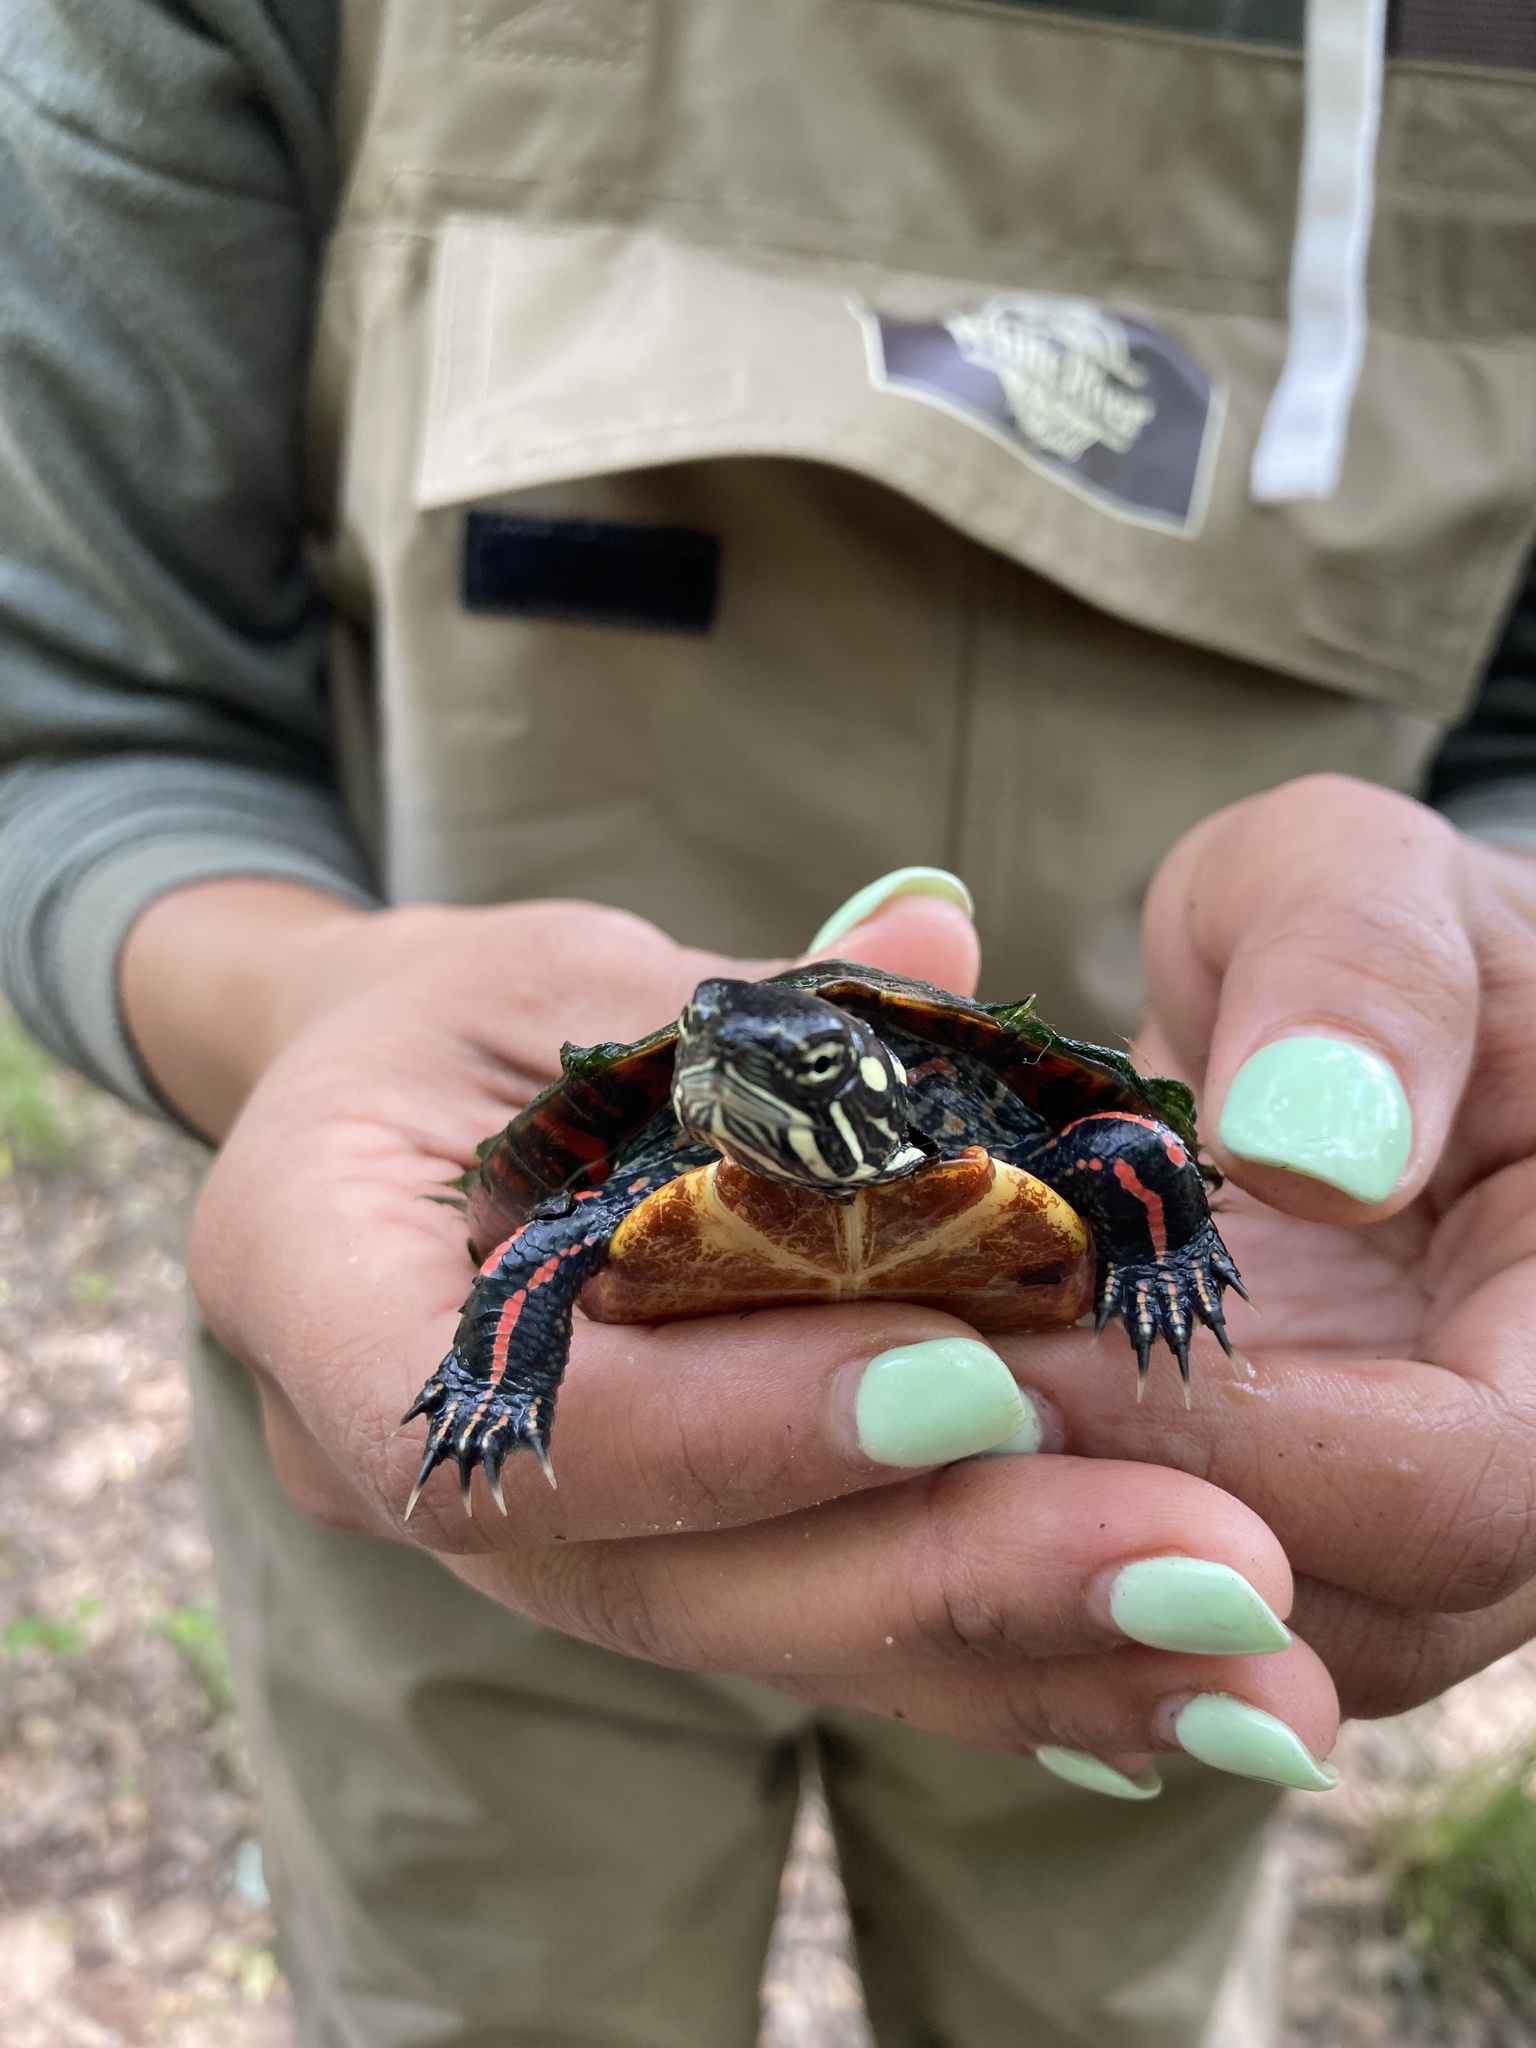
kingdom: Animalia
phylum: Chordata
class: Testudines
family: Emydidae
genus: Chrysemys
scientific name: Chrysemys picta
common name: Painted turtle
